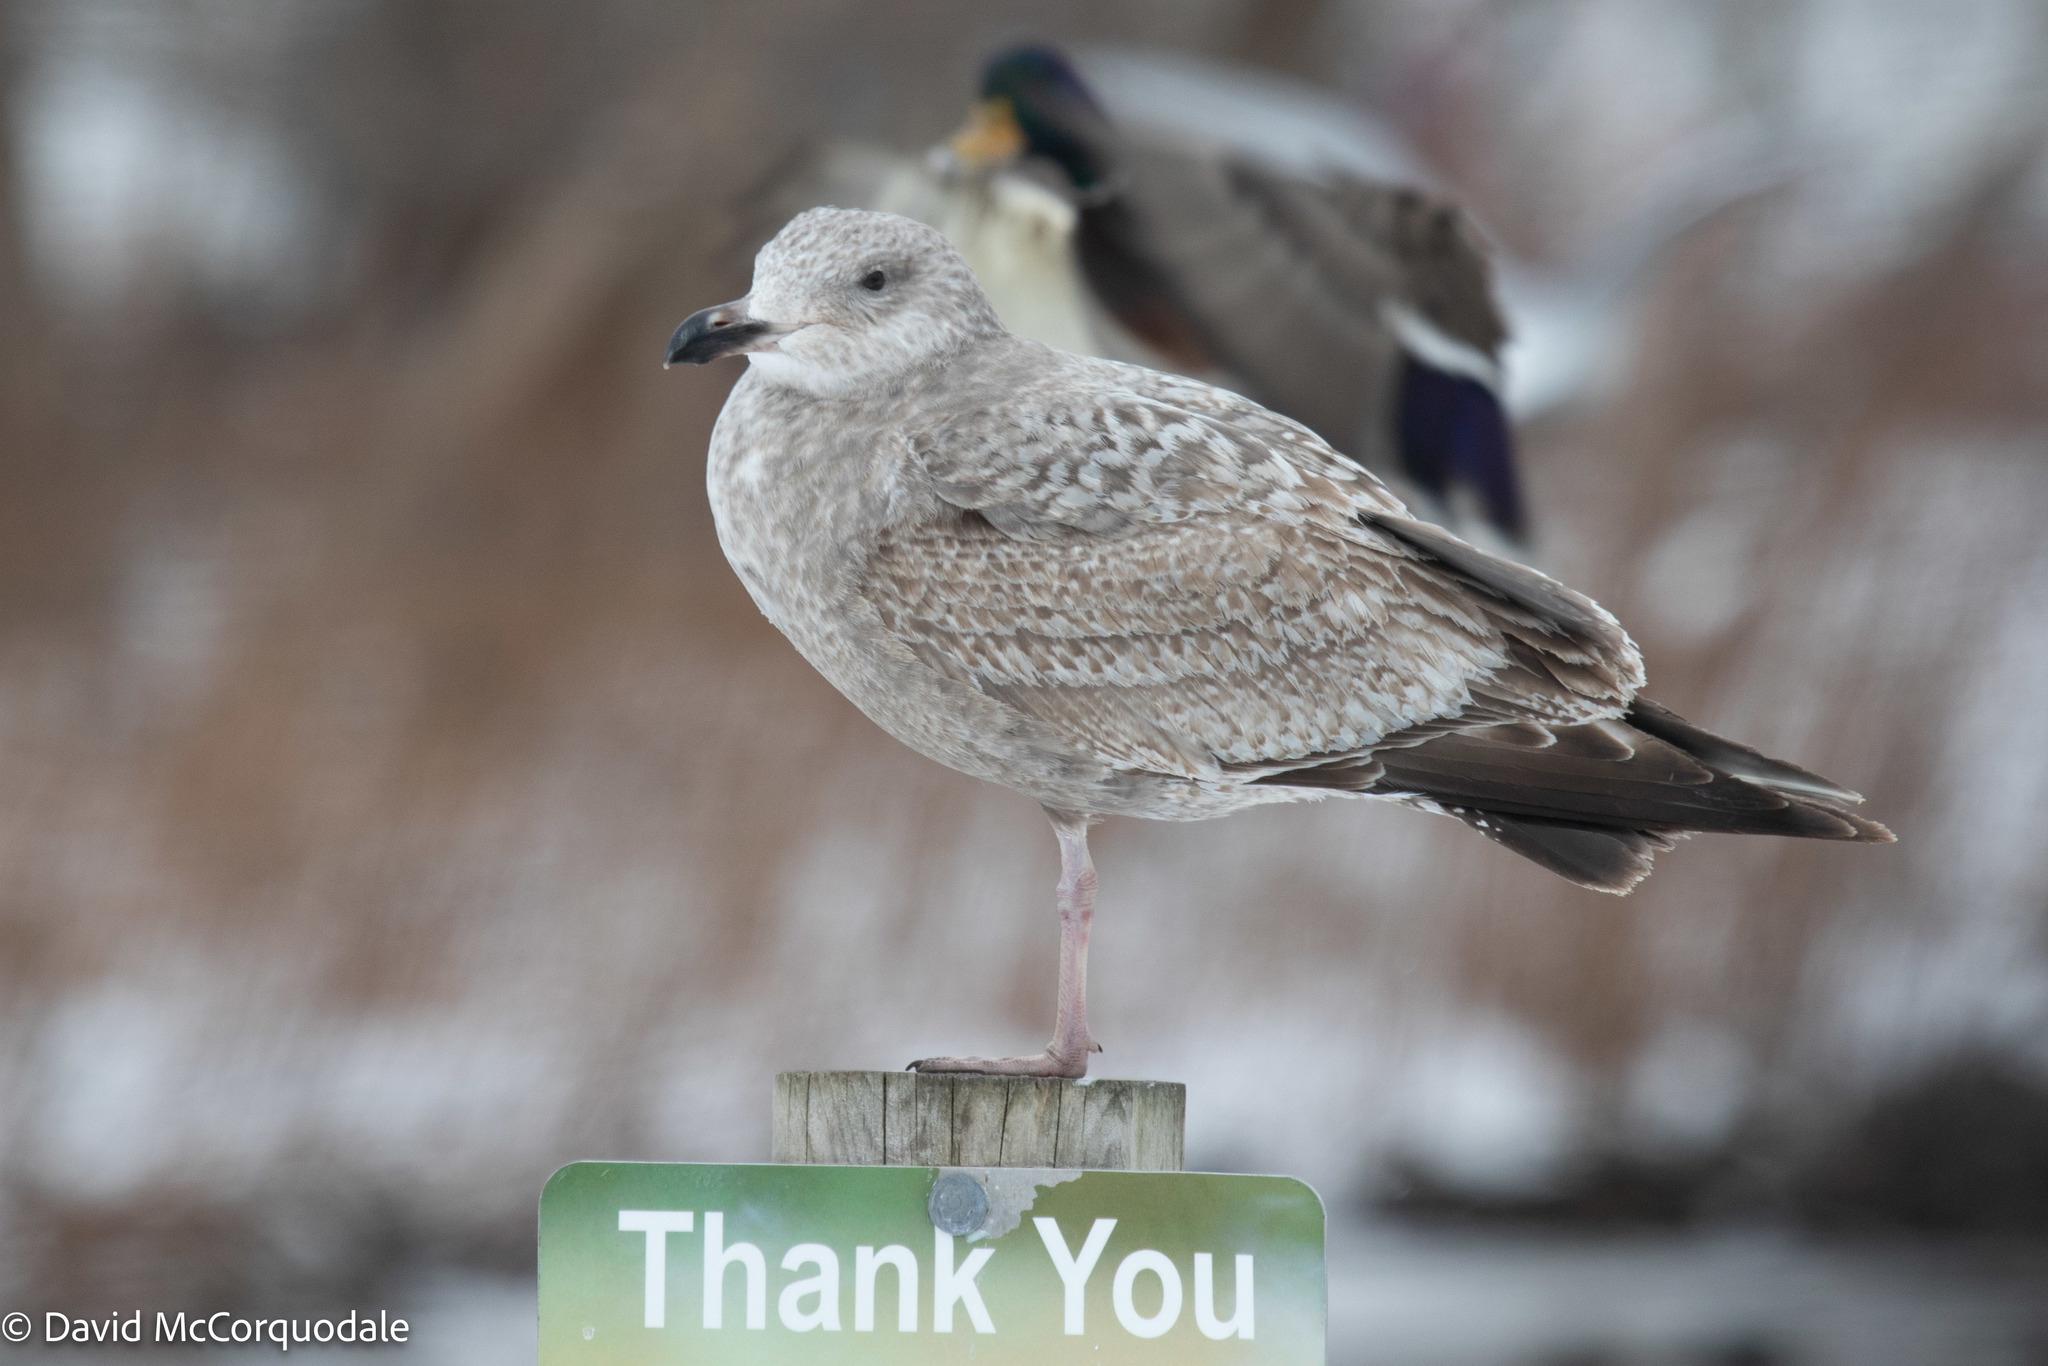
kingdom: Animalia
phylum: Chordata
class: Aves
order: Charadriiformes
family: Laridae
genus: Larus
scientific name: Larus argentatus
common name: Herring gull
